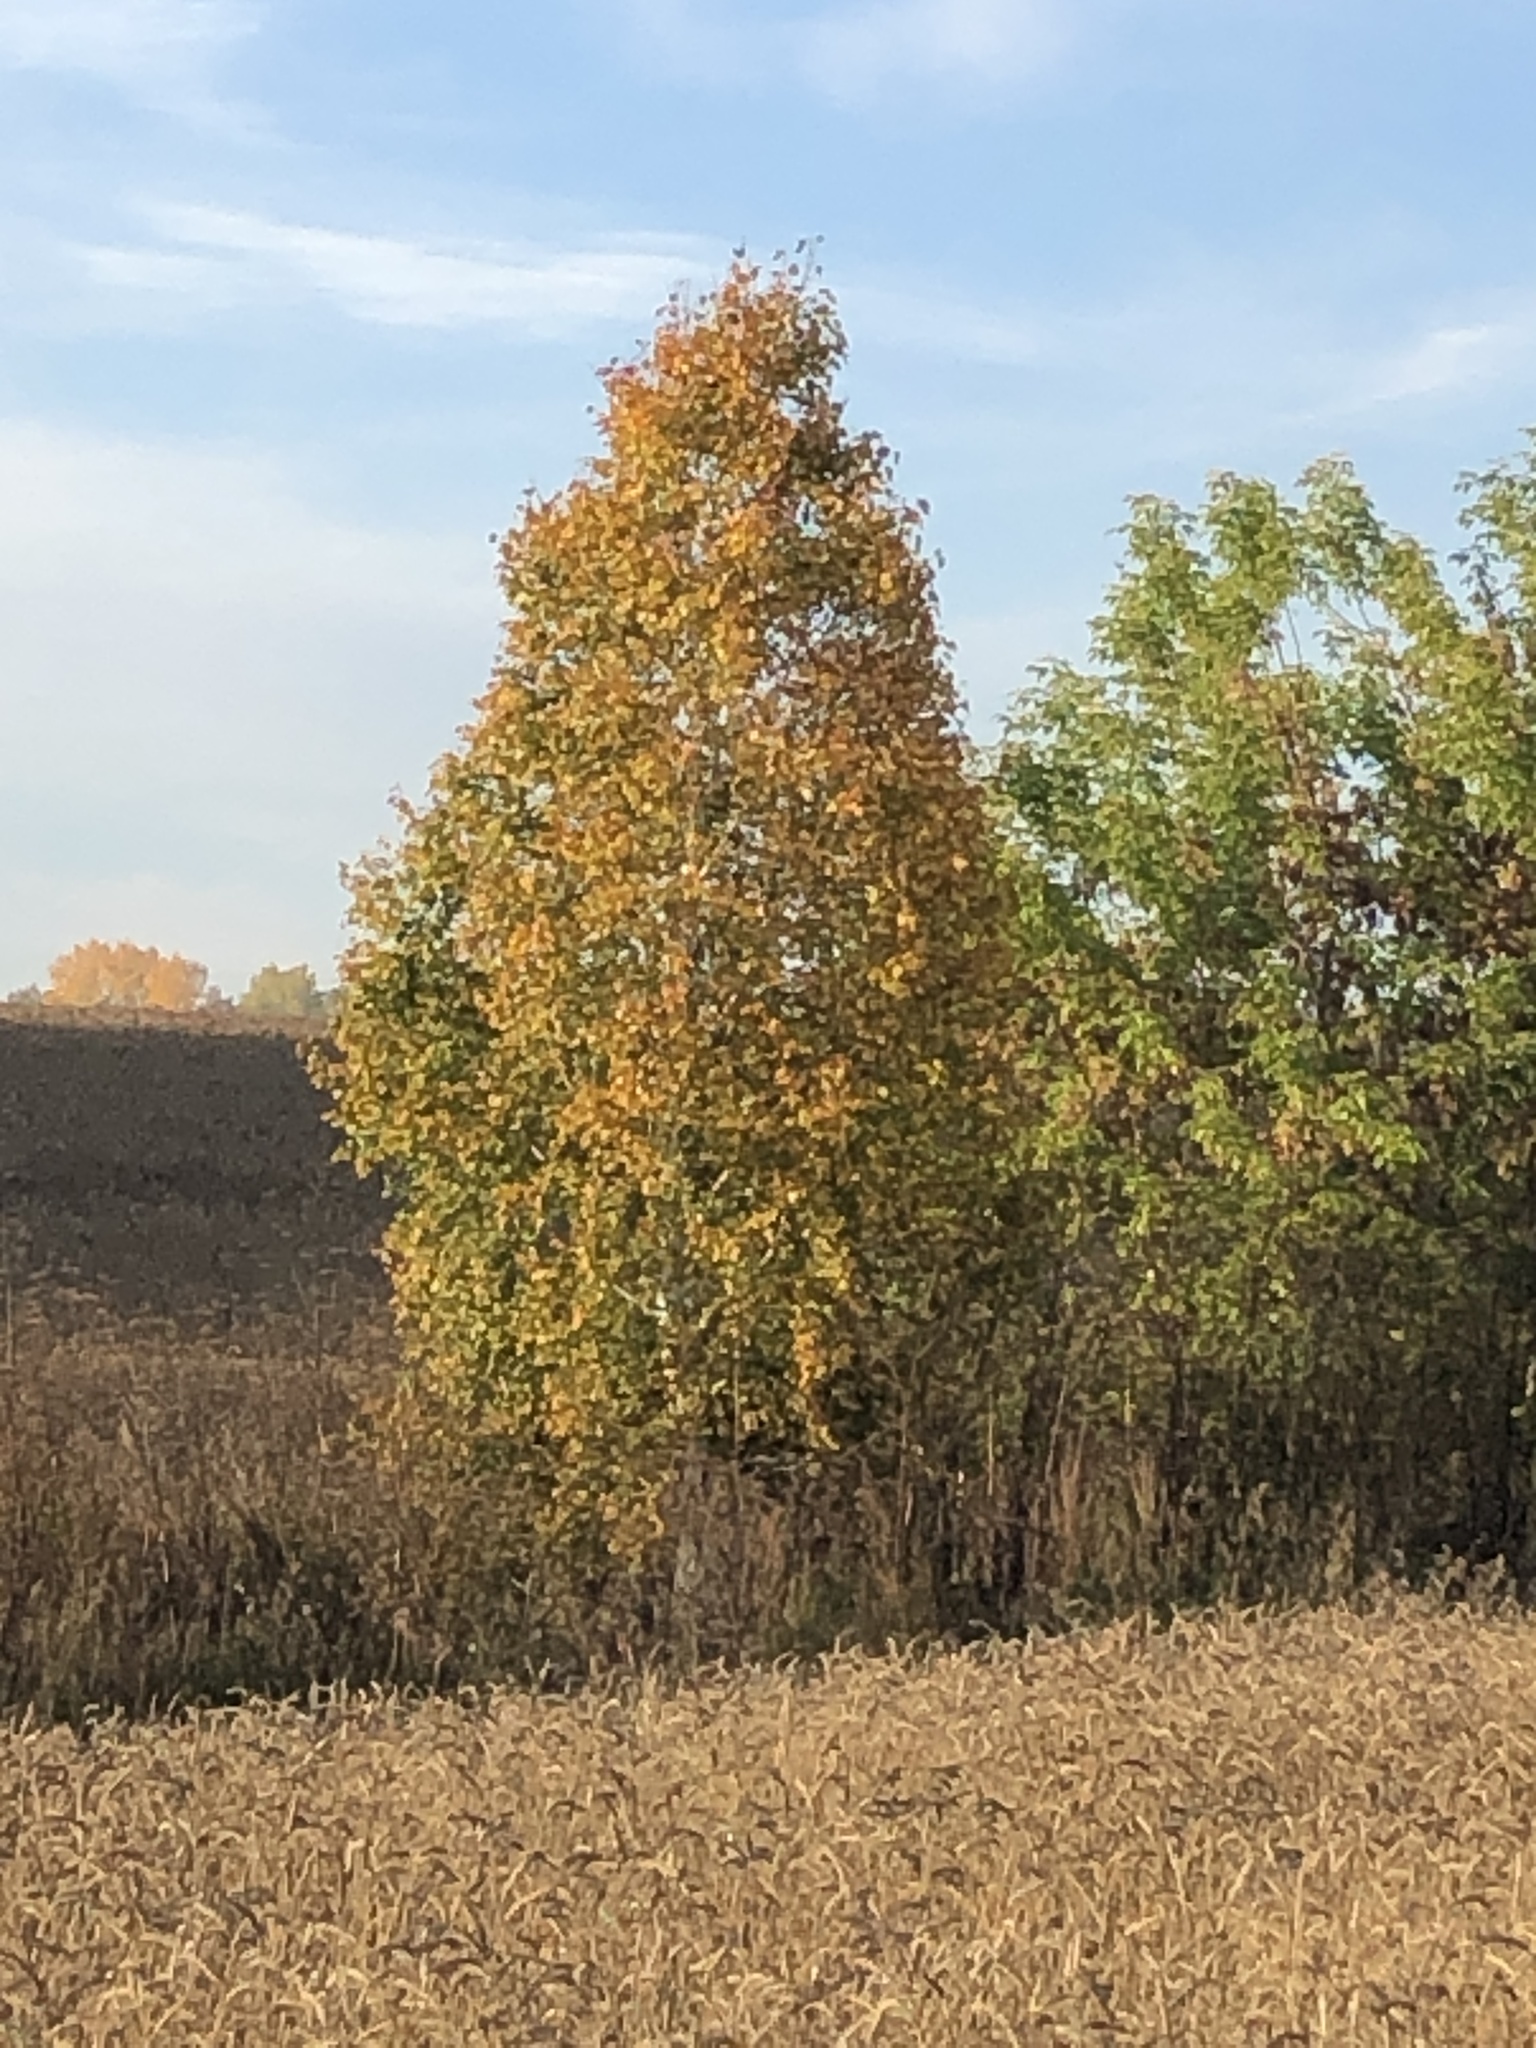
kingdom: Plantae
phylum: Tracheophyta
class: Magnoliopsida
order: Fagales
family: Betulaceae
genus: Betula
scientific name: Betula pendula
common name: Silver birch
